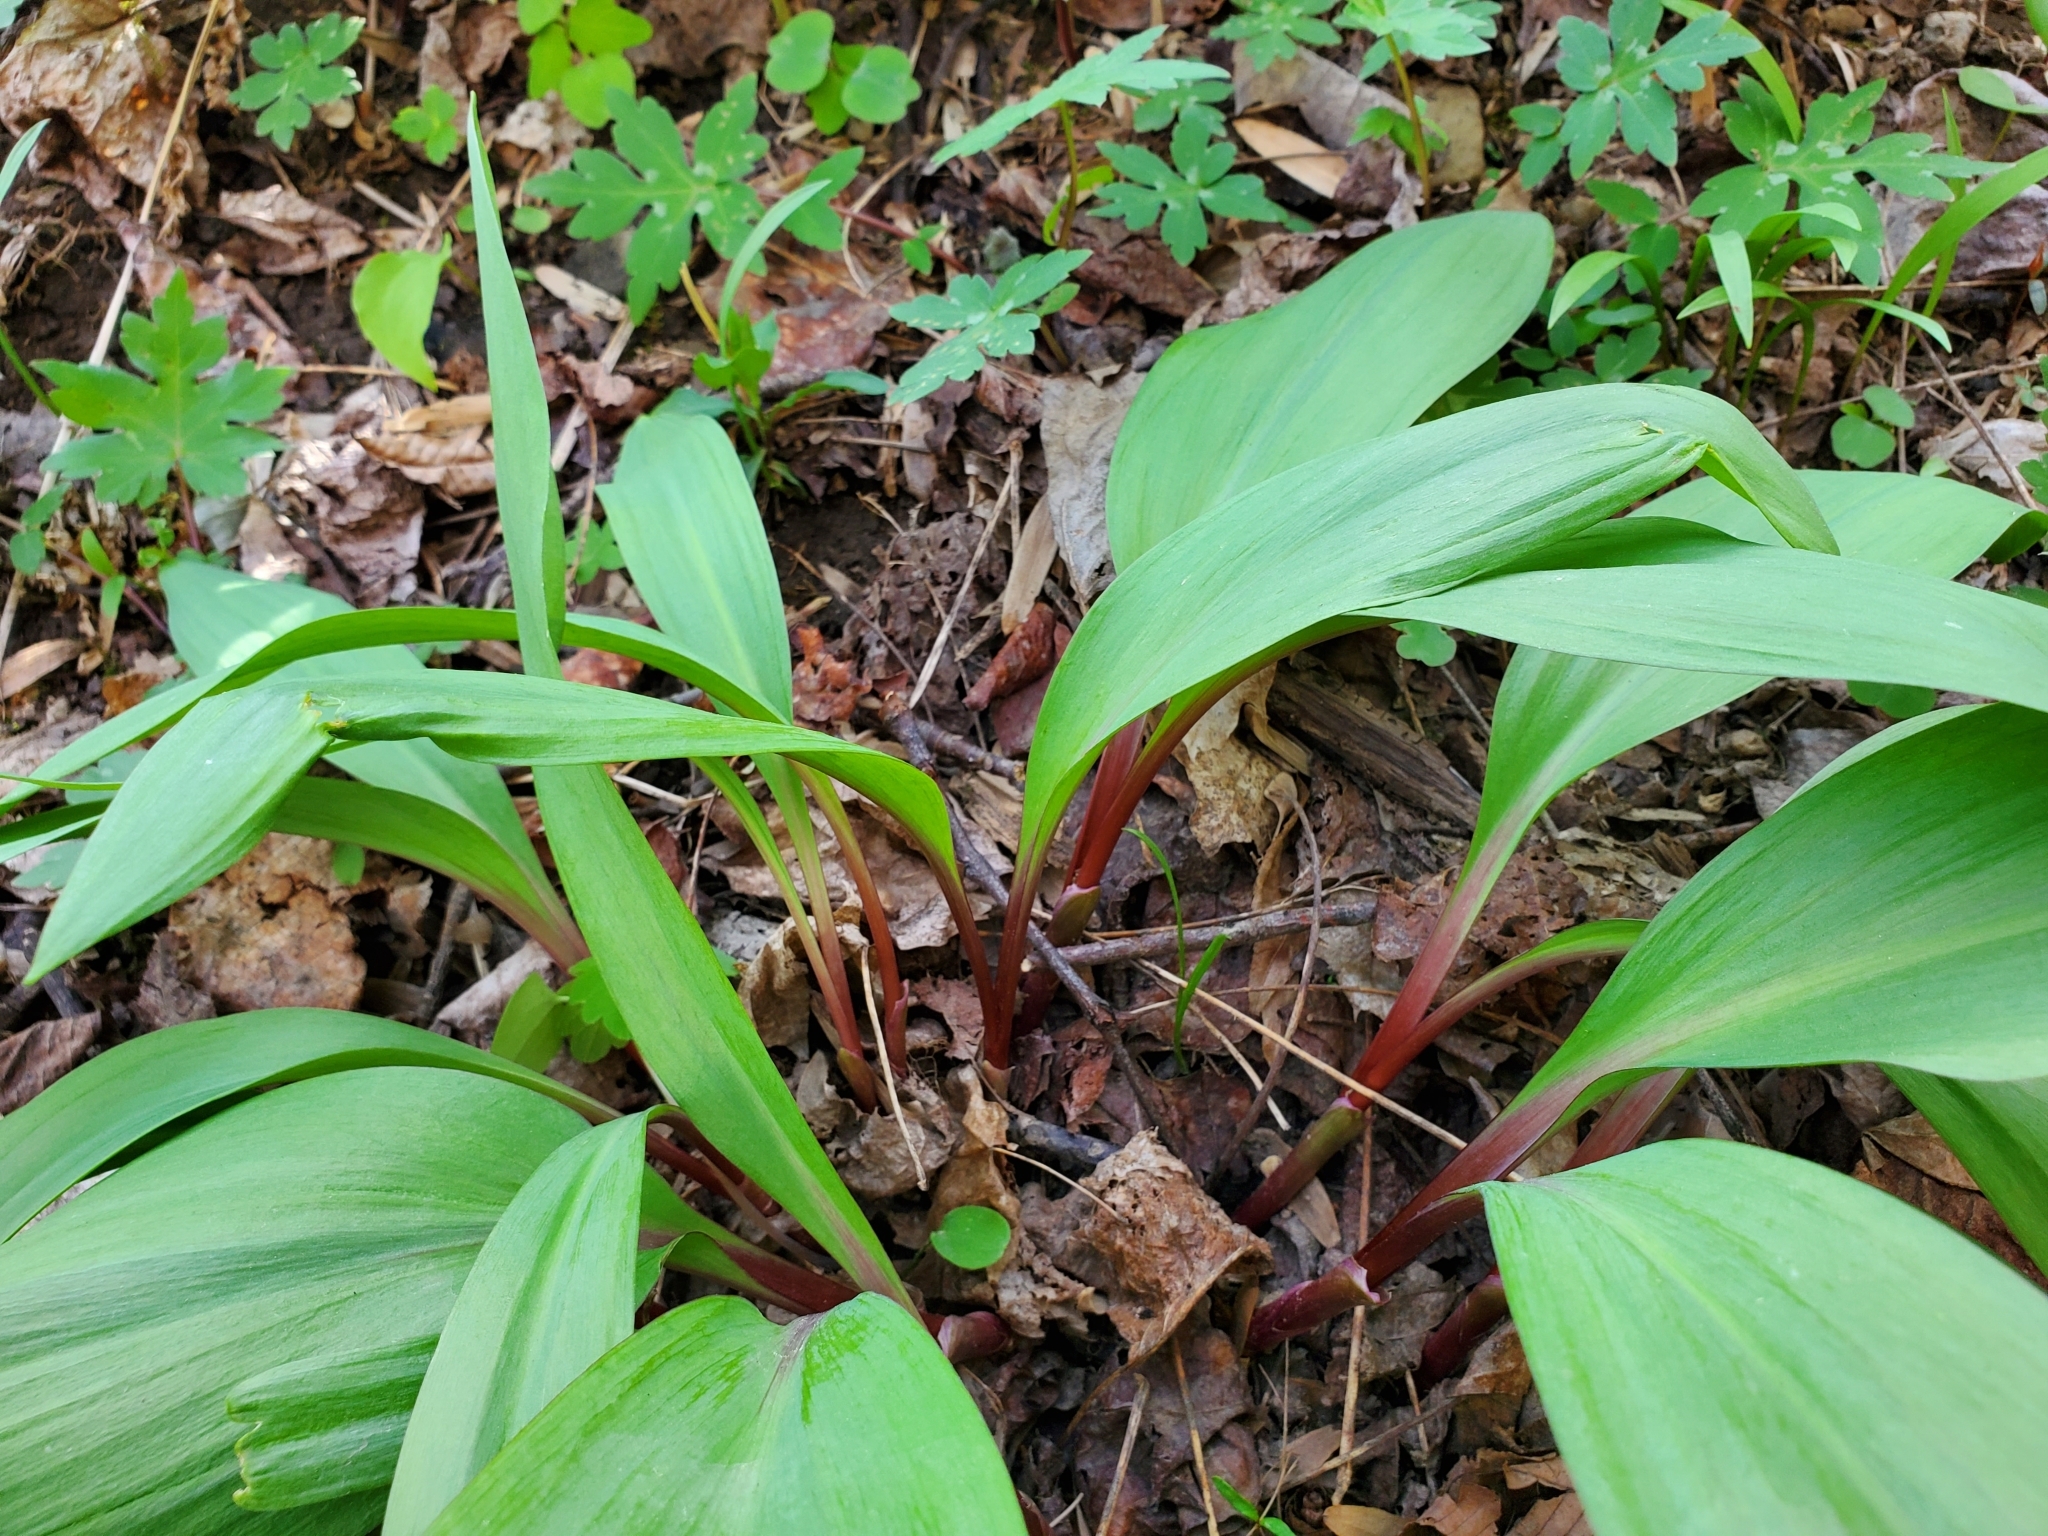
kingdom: Plantae
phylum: Tracheophyta
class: Liliopsida
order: Asparagales
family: Amaryllidaceae
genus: Allium
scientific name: Allium tricoccum
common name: Ramp
